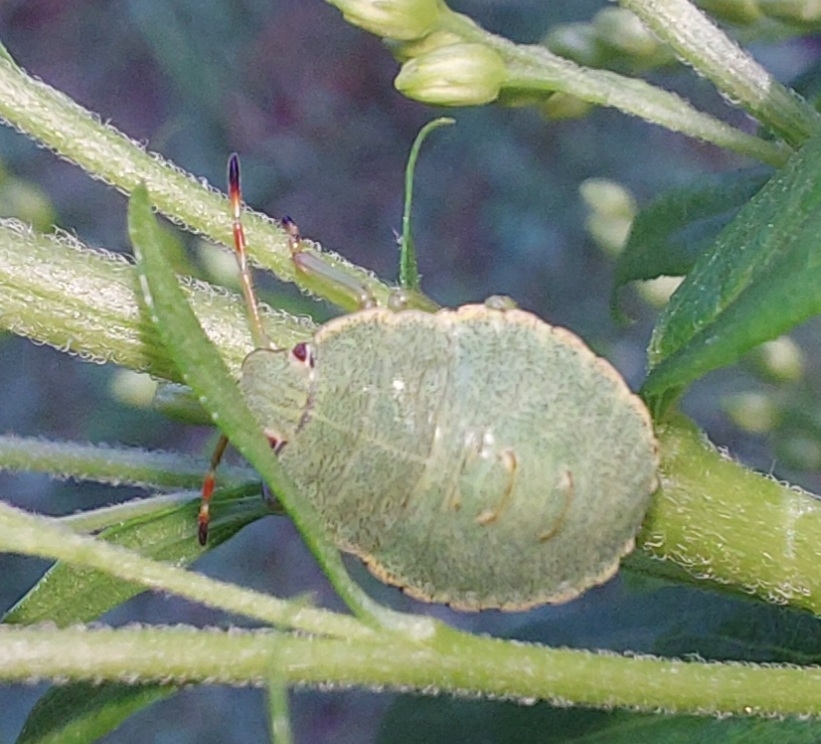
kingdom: Animalia
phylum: Arthropoda
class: Insecta
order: Hemiptera
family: Pentatomidae
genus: Palomena
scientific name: Palomena prasina
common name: Green shieldbug
